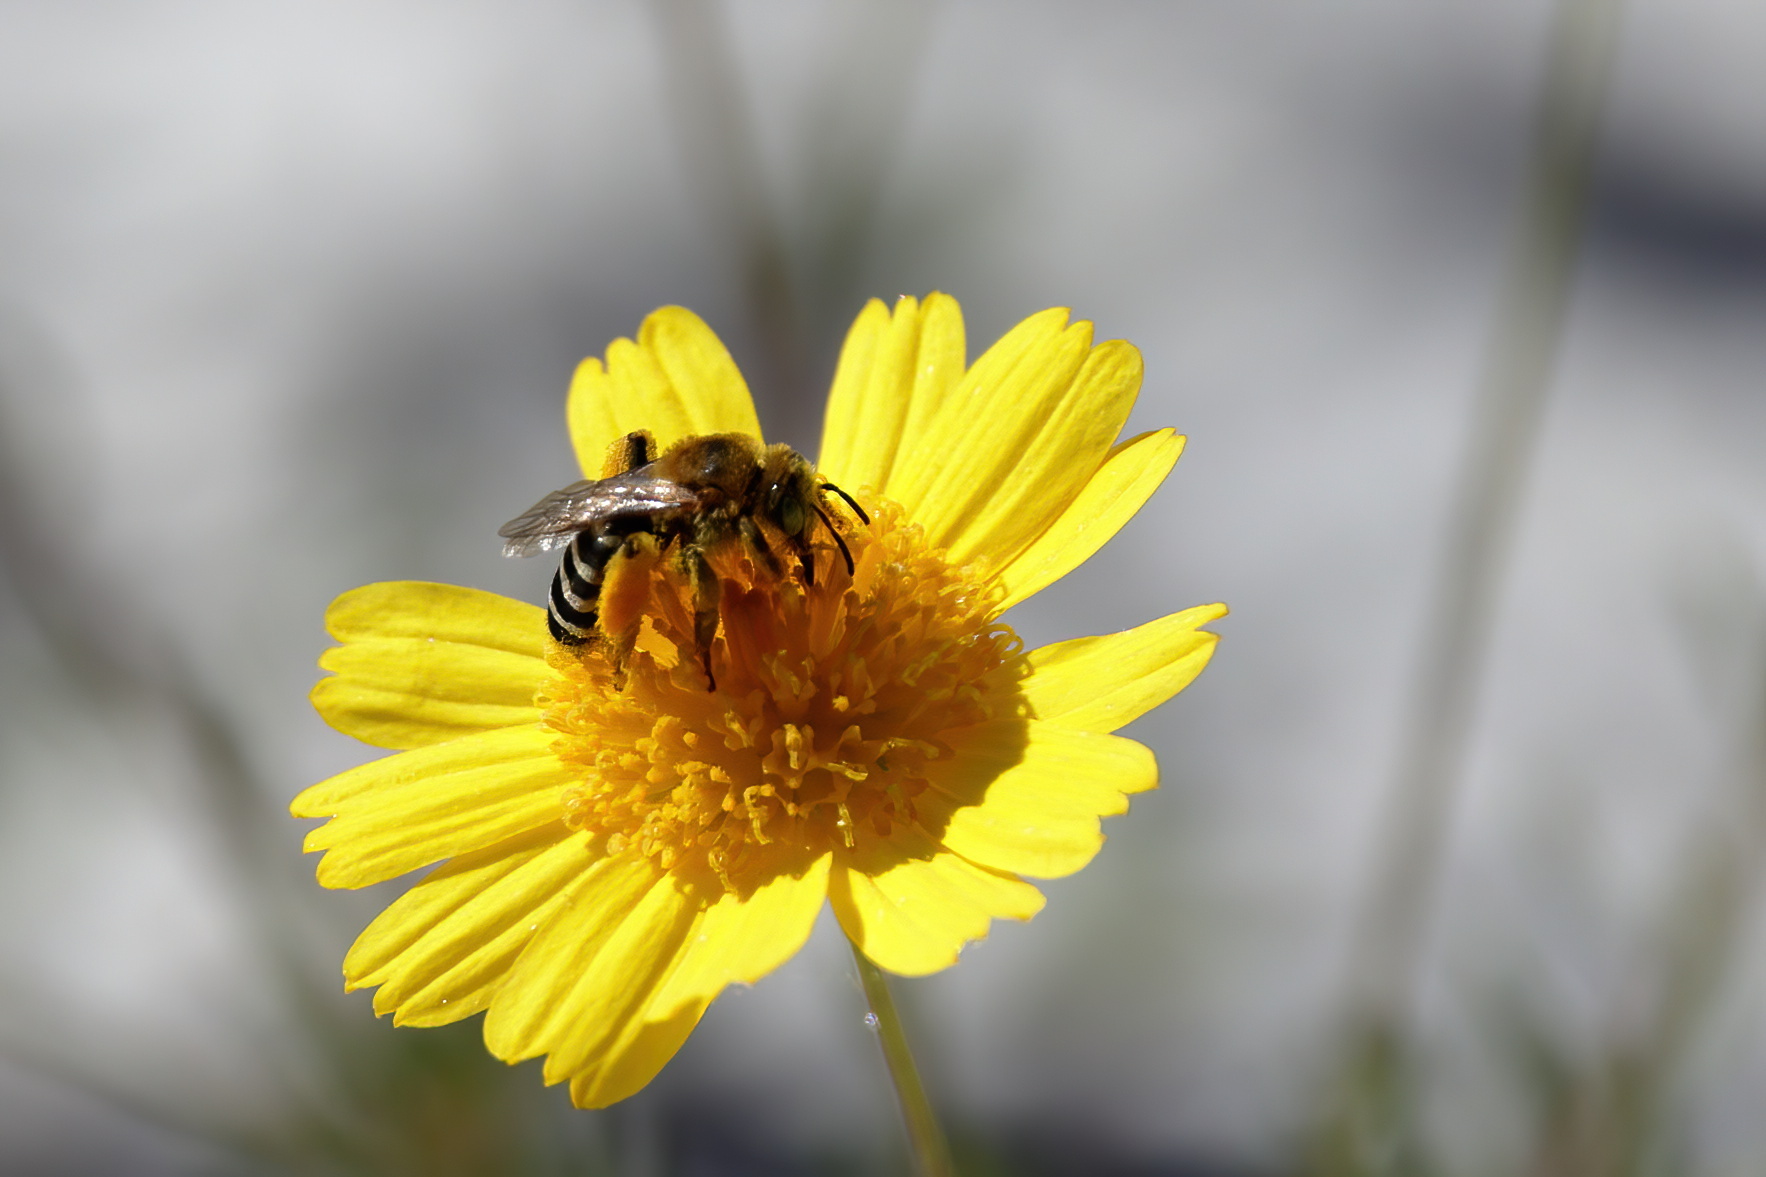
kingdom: Animalia
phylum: Arthropoda
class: Insecta
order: Hymenoptera
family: Melittidae
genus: Hesperapis
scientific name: Hesperapis oraria
